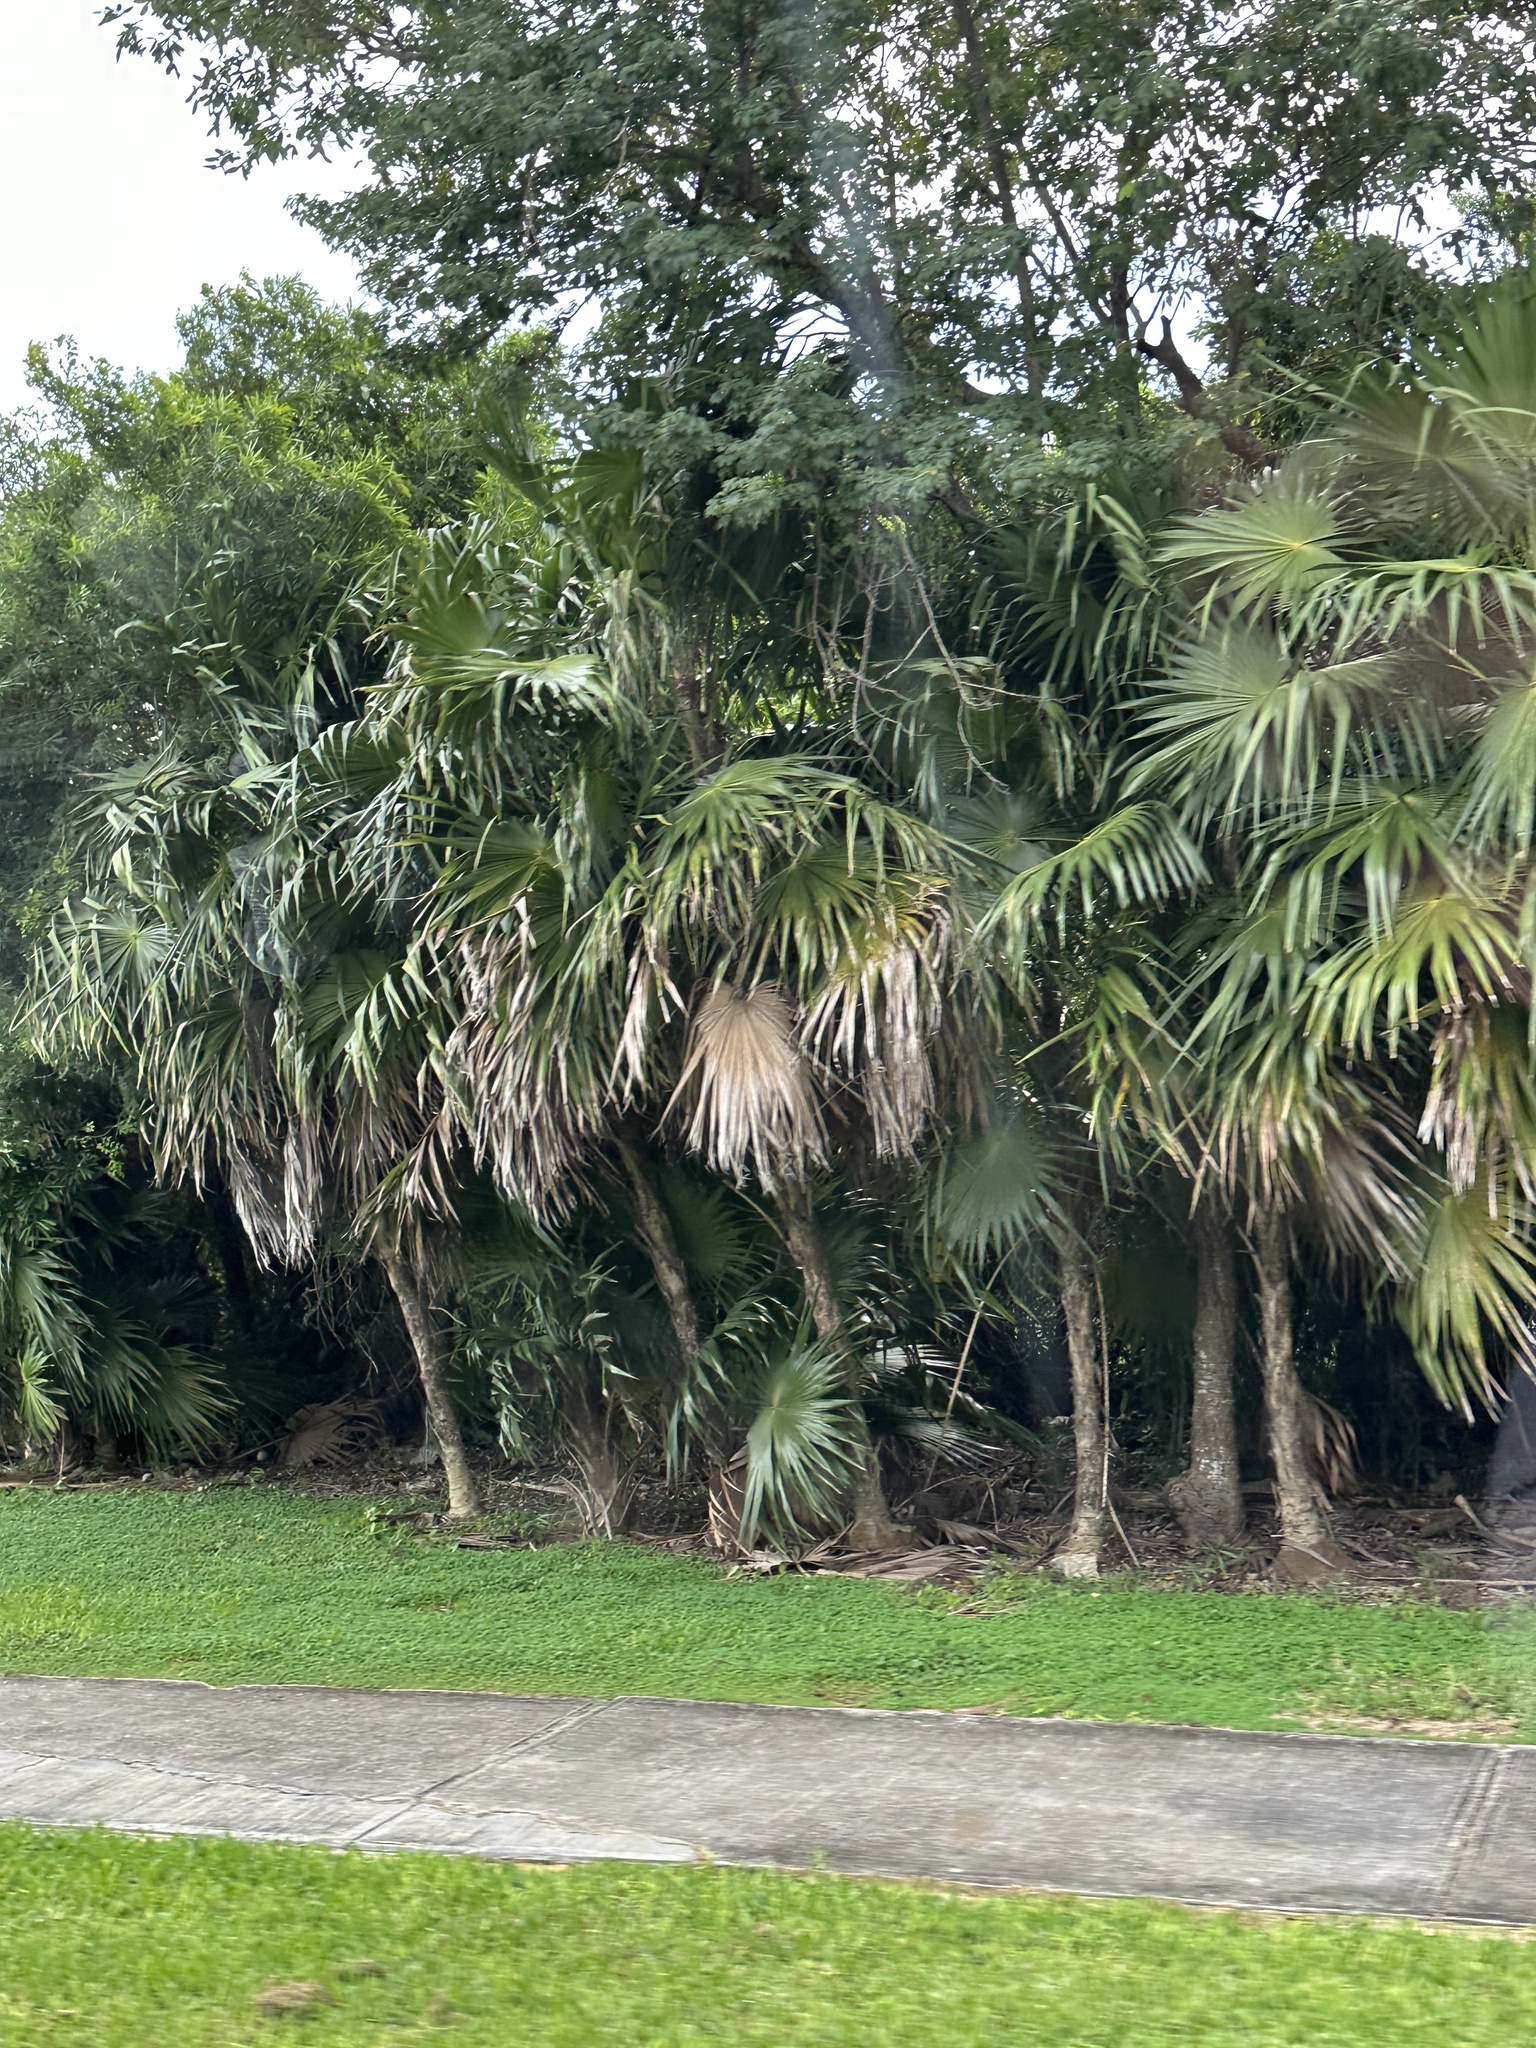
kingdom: Plantae
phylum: Tracheophyta
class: Liliopsida
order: Arecales
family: Arecaceae
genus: Thrinax
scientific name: Thrinax radiata
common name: Florida thatch
